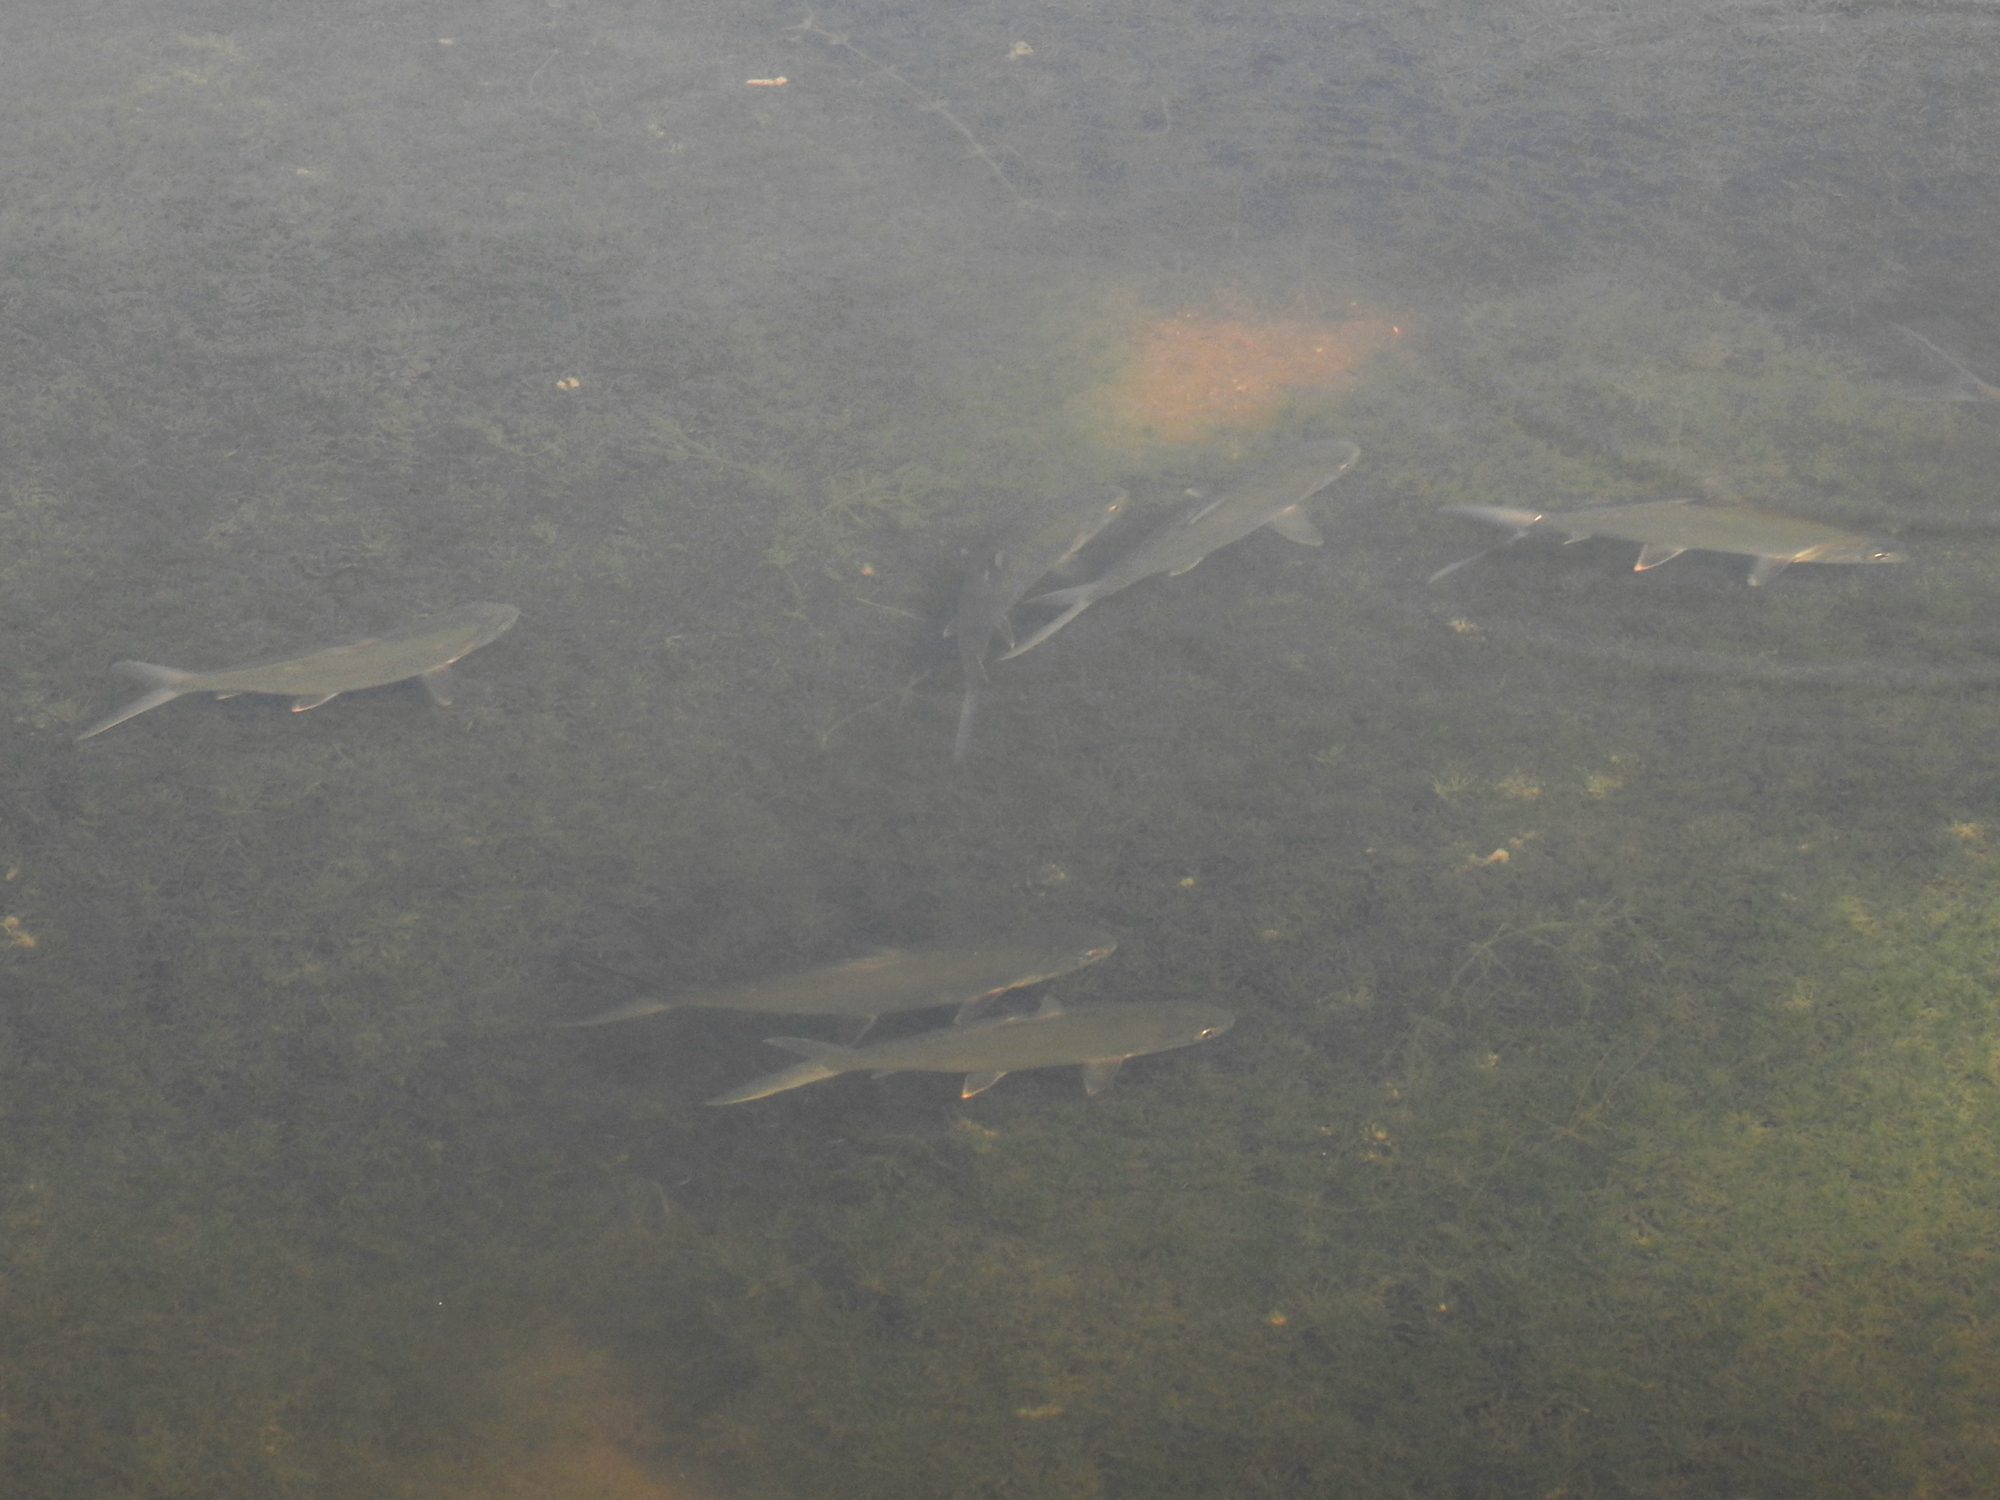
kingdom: Animalia
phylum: Chordata
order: Gonorynchiformes
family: Chanidae
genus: Chanos
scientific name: Chanos chanos
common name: Milkfish
